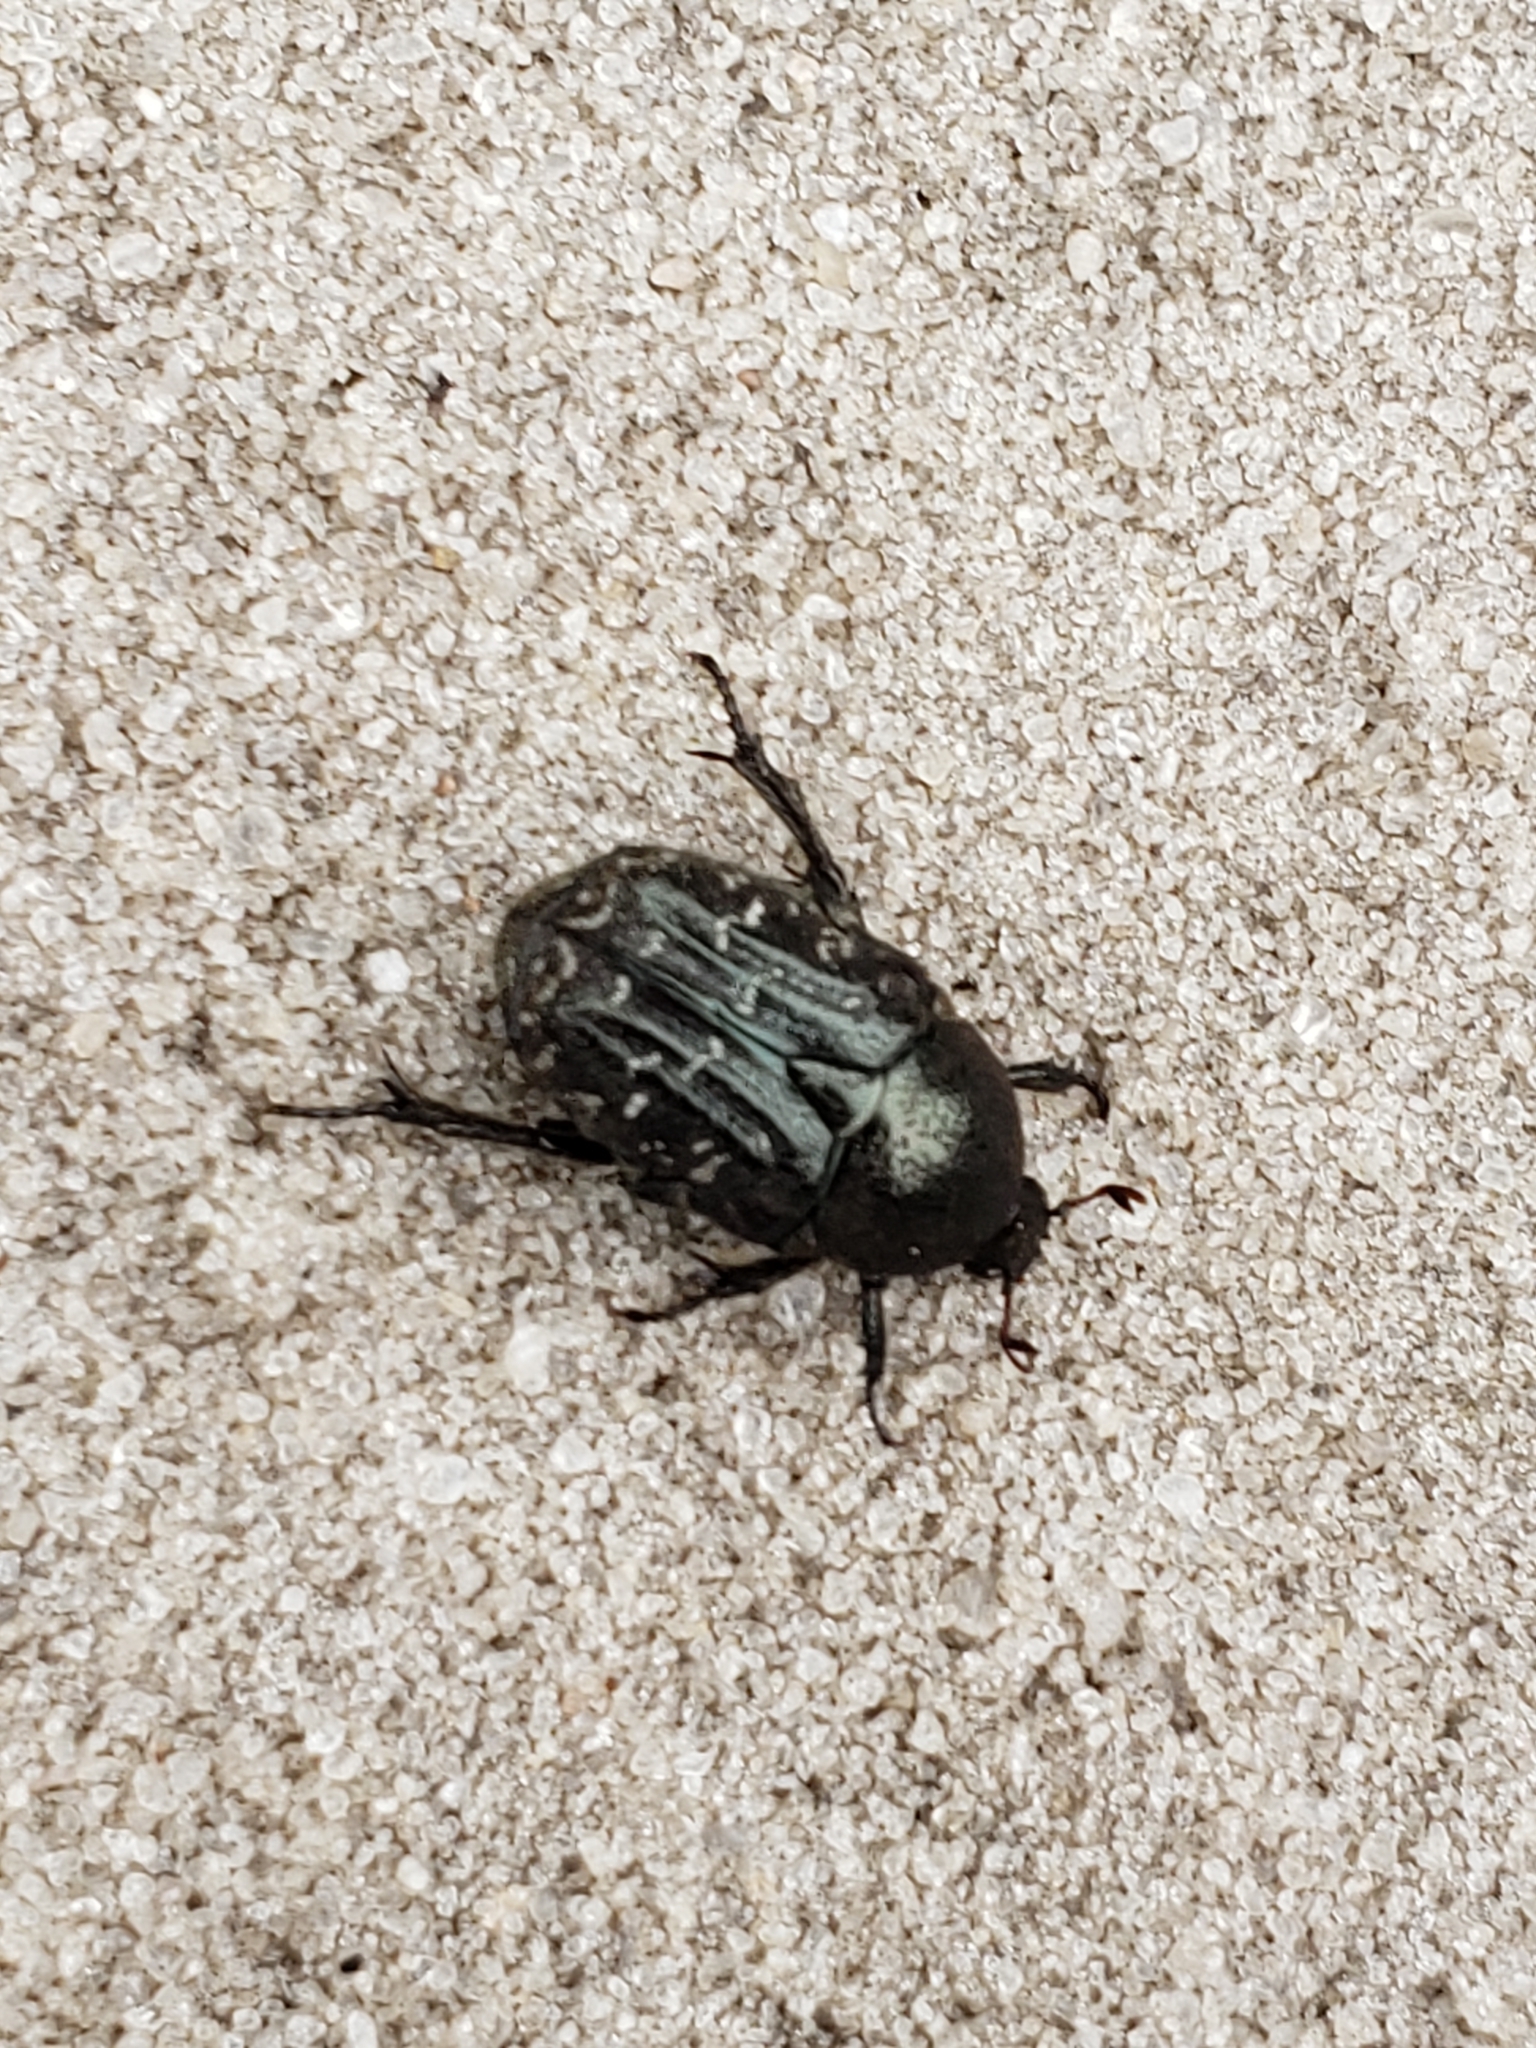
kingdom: Animalia
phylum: Arthropoda
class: Insecta
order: Coleoptera
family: Scarabaeidae
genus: Euphoria
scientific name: Euphoria sepulcralis
